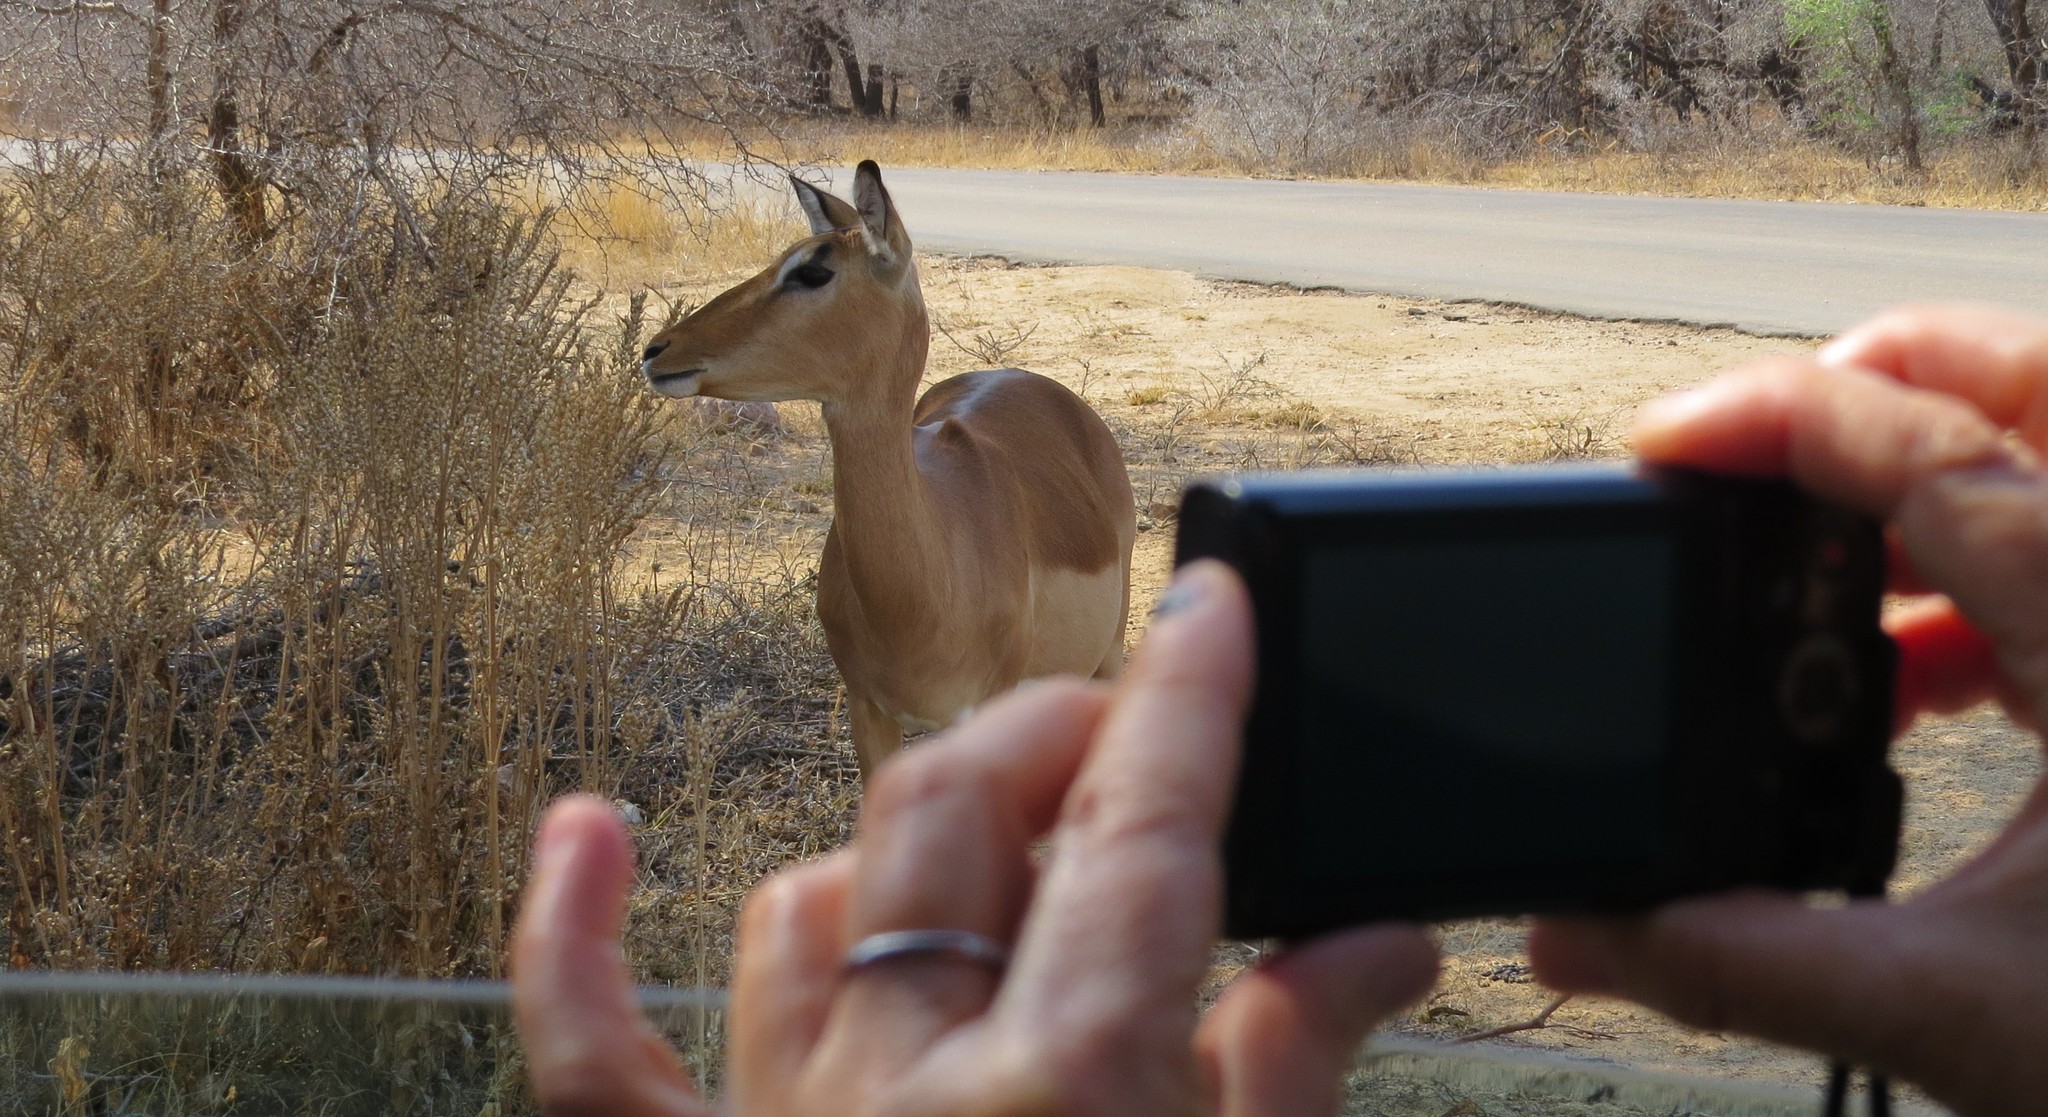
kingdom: Animalia
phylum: Chordata
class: Mammalia
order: Artiodactyla
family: Bovidae
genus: Aepyceros
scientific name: Aepyceros melampus
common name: Impala
